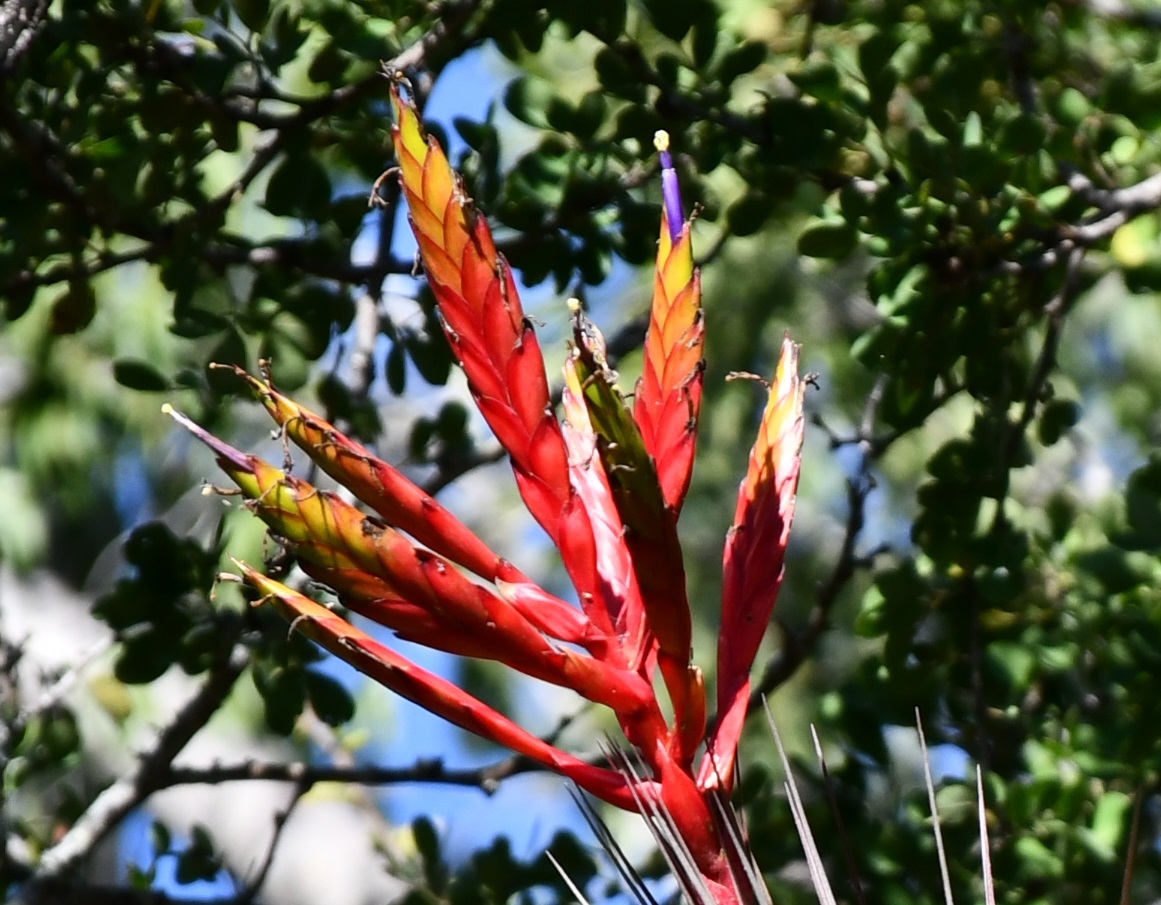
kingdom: Plantae
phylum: Tracheophyta
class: Liliopsida
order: Poales
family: Bromeliaceae
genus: Tillandsia
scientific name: Tillandsia fasciculata
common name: Giant airplant
